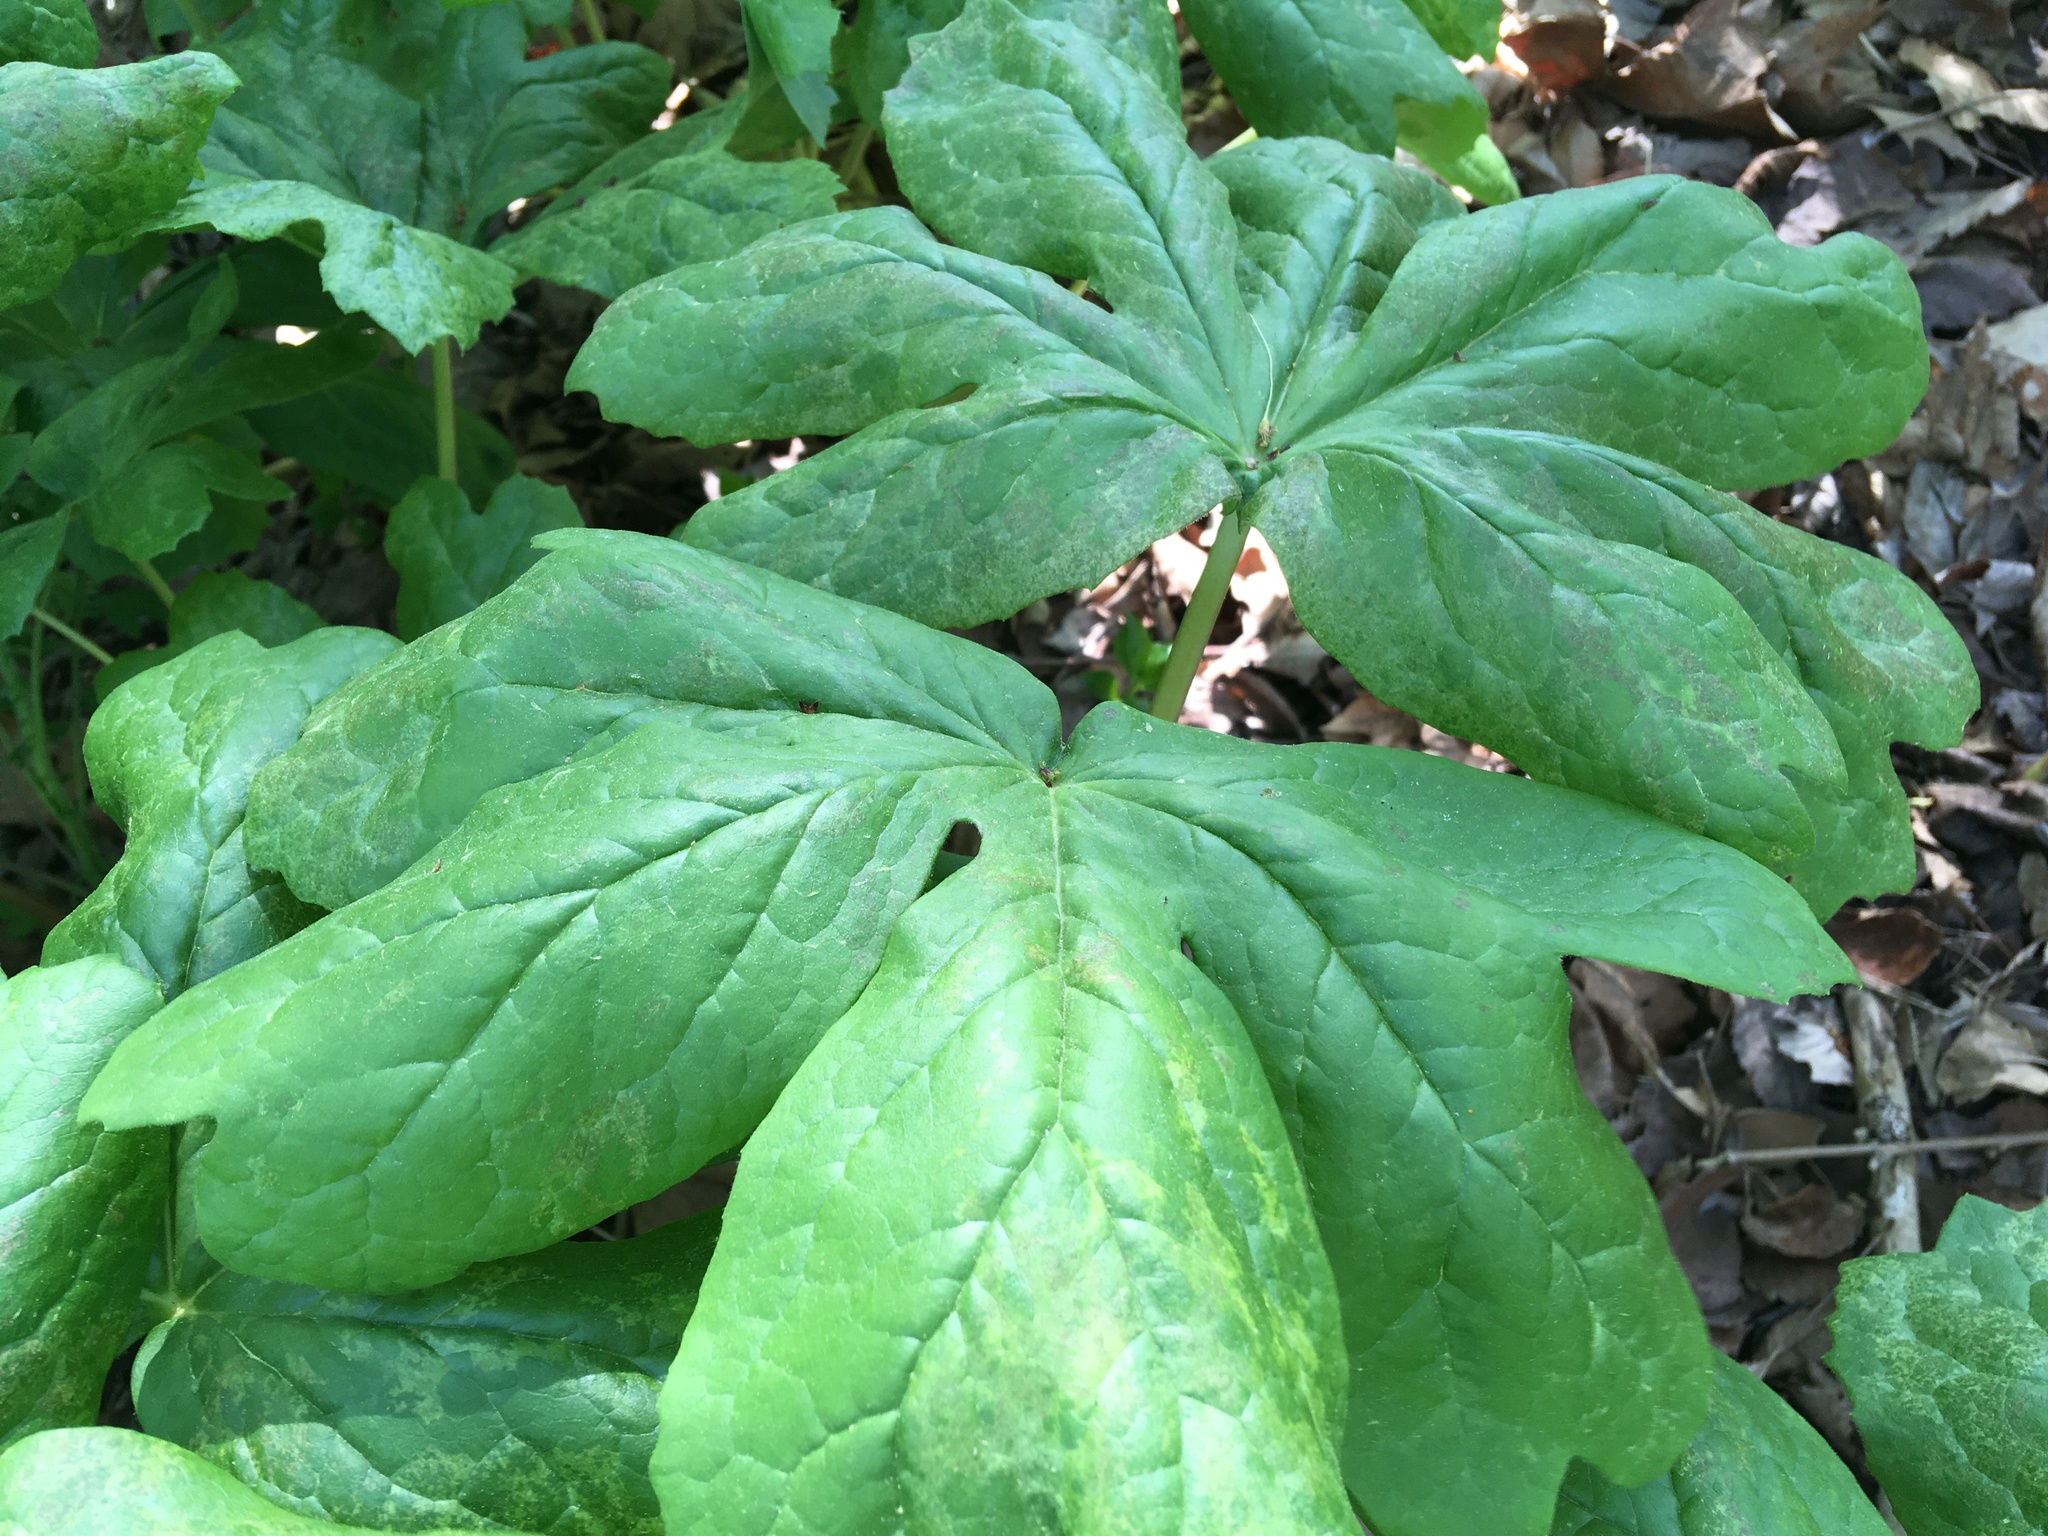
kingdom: Plantae
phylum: Tracheophyta
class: Magnoliopsida
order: Ranunculales
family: Berberidaceae
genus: Podophyllum
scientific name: Podophyllum peltatum
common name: Wild mandrake
